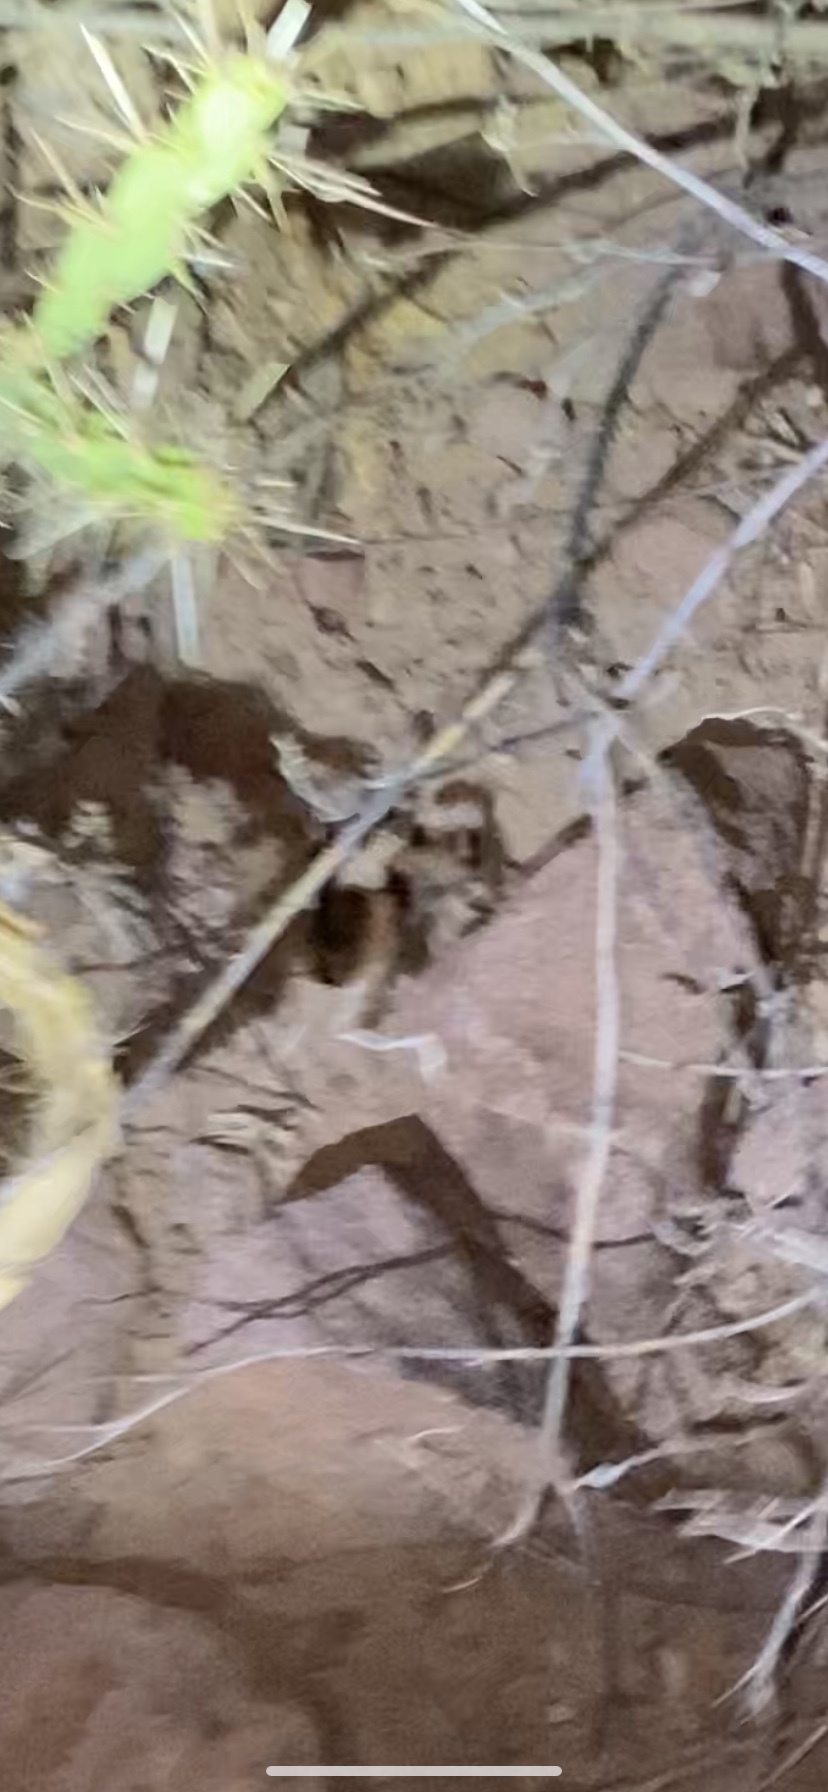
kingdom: Animalia
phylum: Arthropoda
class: Arachnida
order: Araneae
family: Theraphosidae
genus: Aphonopelma
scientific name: Aphonopelma chalcodes
